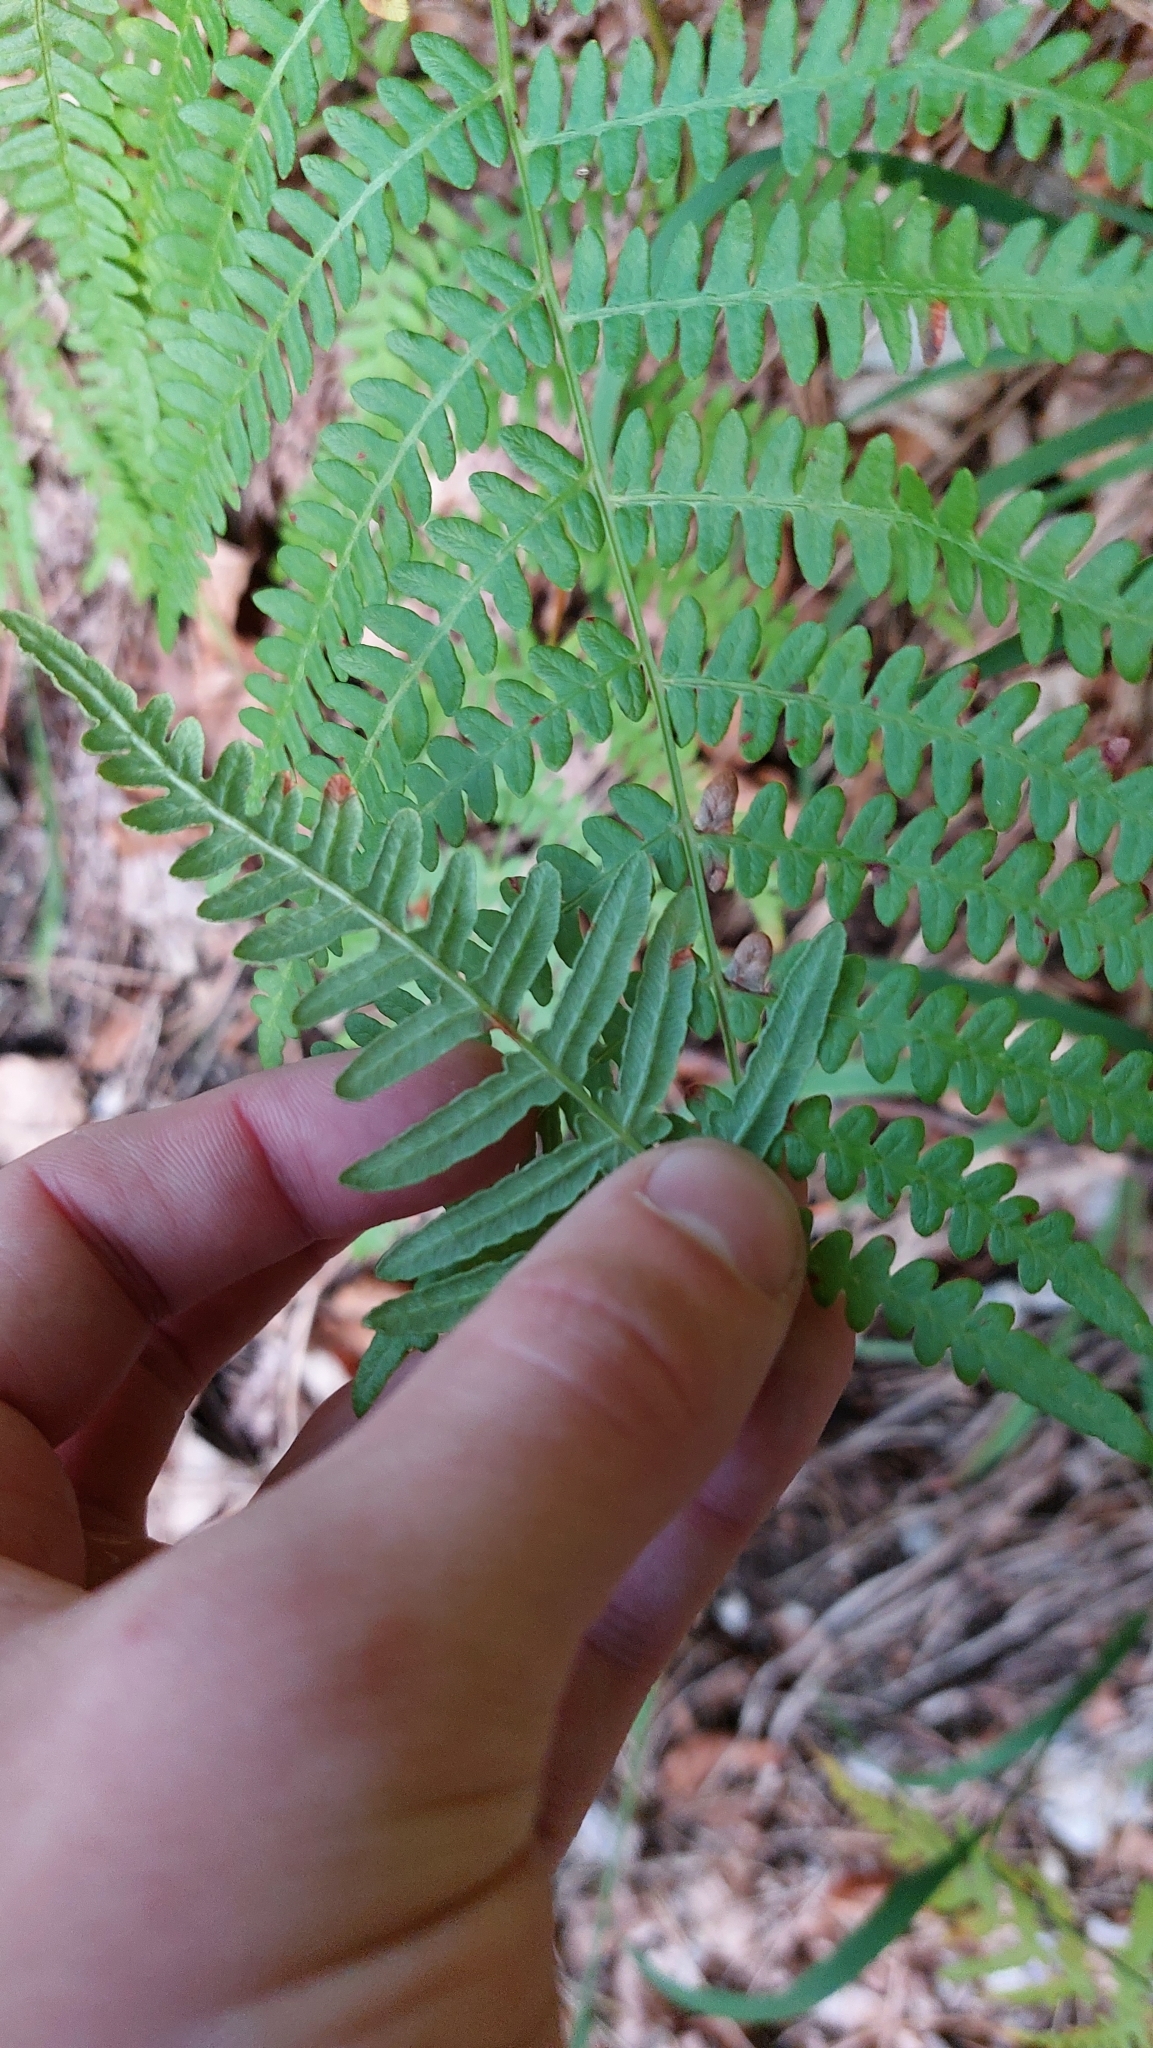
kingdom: Plantae
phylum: Tracheophyta
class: Polypodiopsida
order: Polypodiales
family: Dennstaedtiaceae
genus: Pteridium
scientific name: Pteridium aquilinum
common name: Bracken
